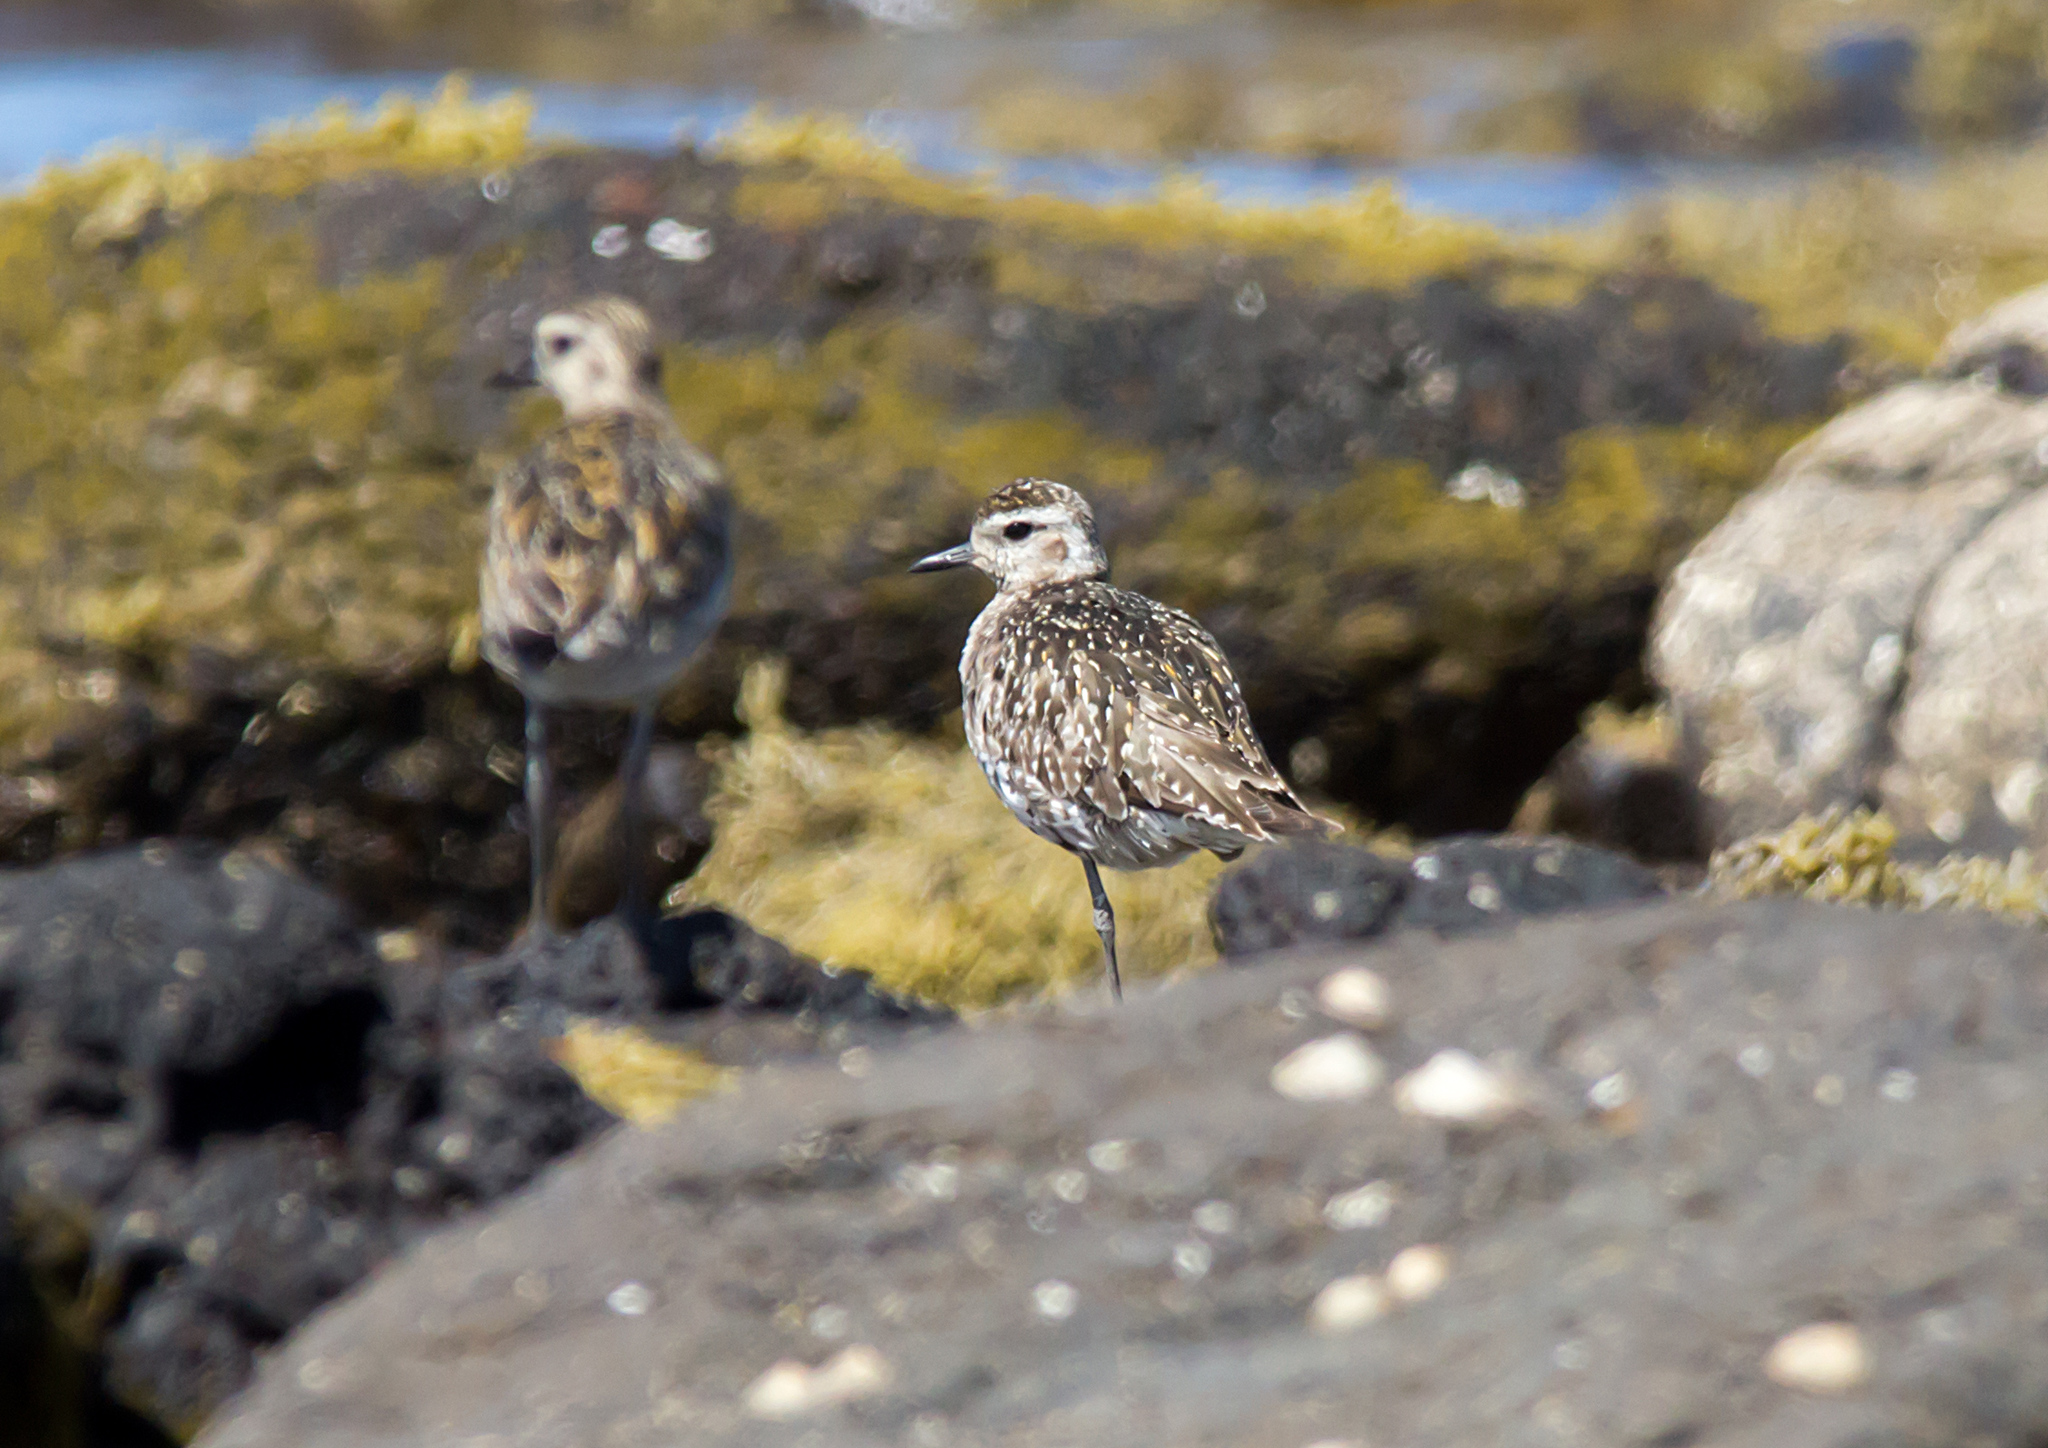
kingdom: Animalia
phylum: Chordata
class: Aves
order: Charadriiformes
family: Charadriidae
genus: Pluvialis
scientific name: Pluvialis fulva
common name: Pacific golden plover
